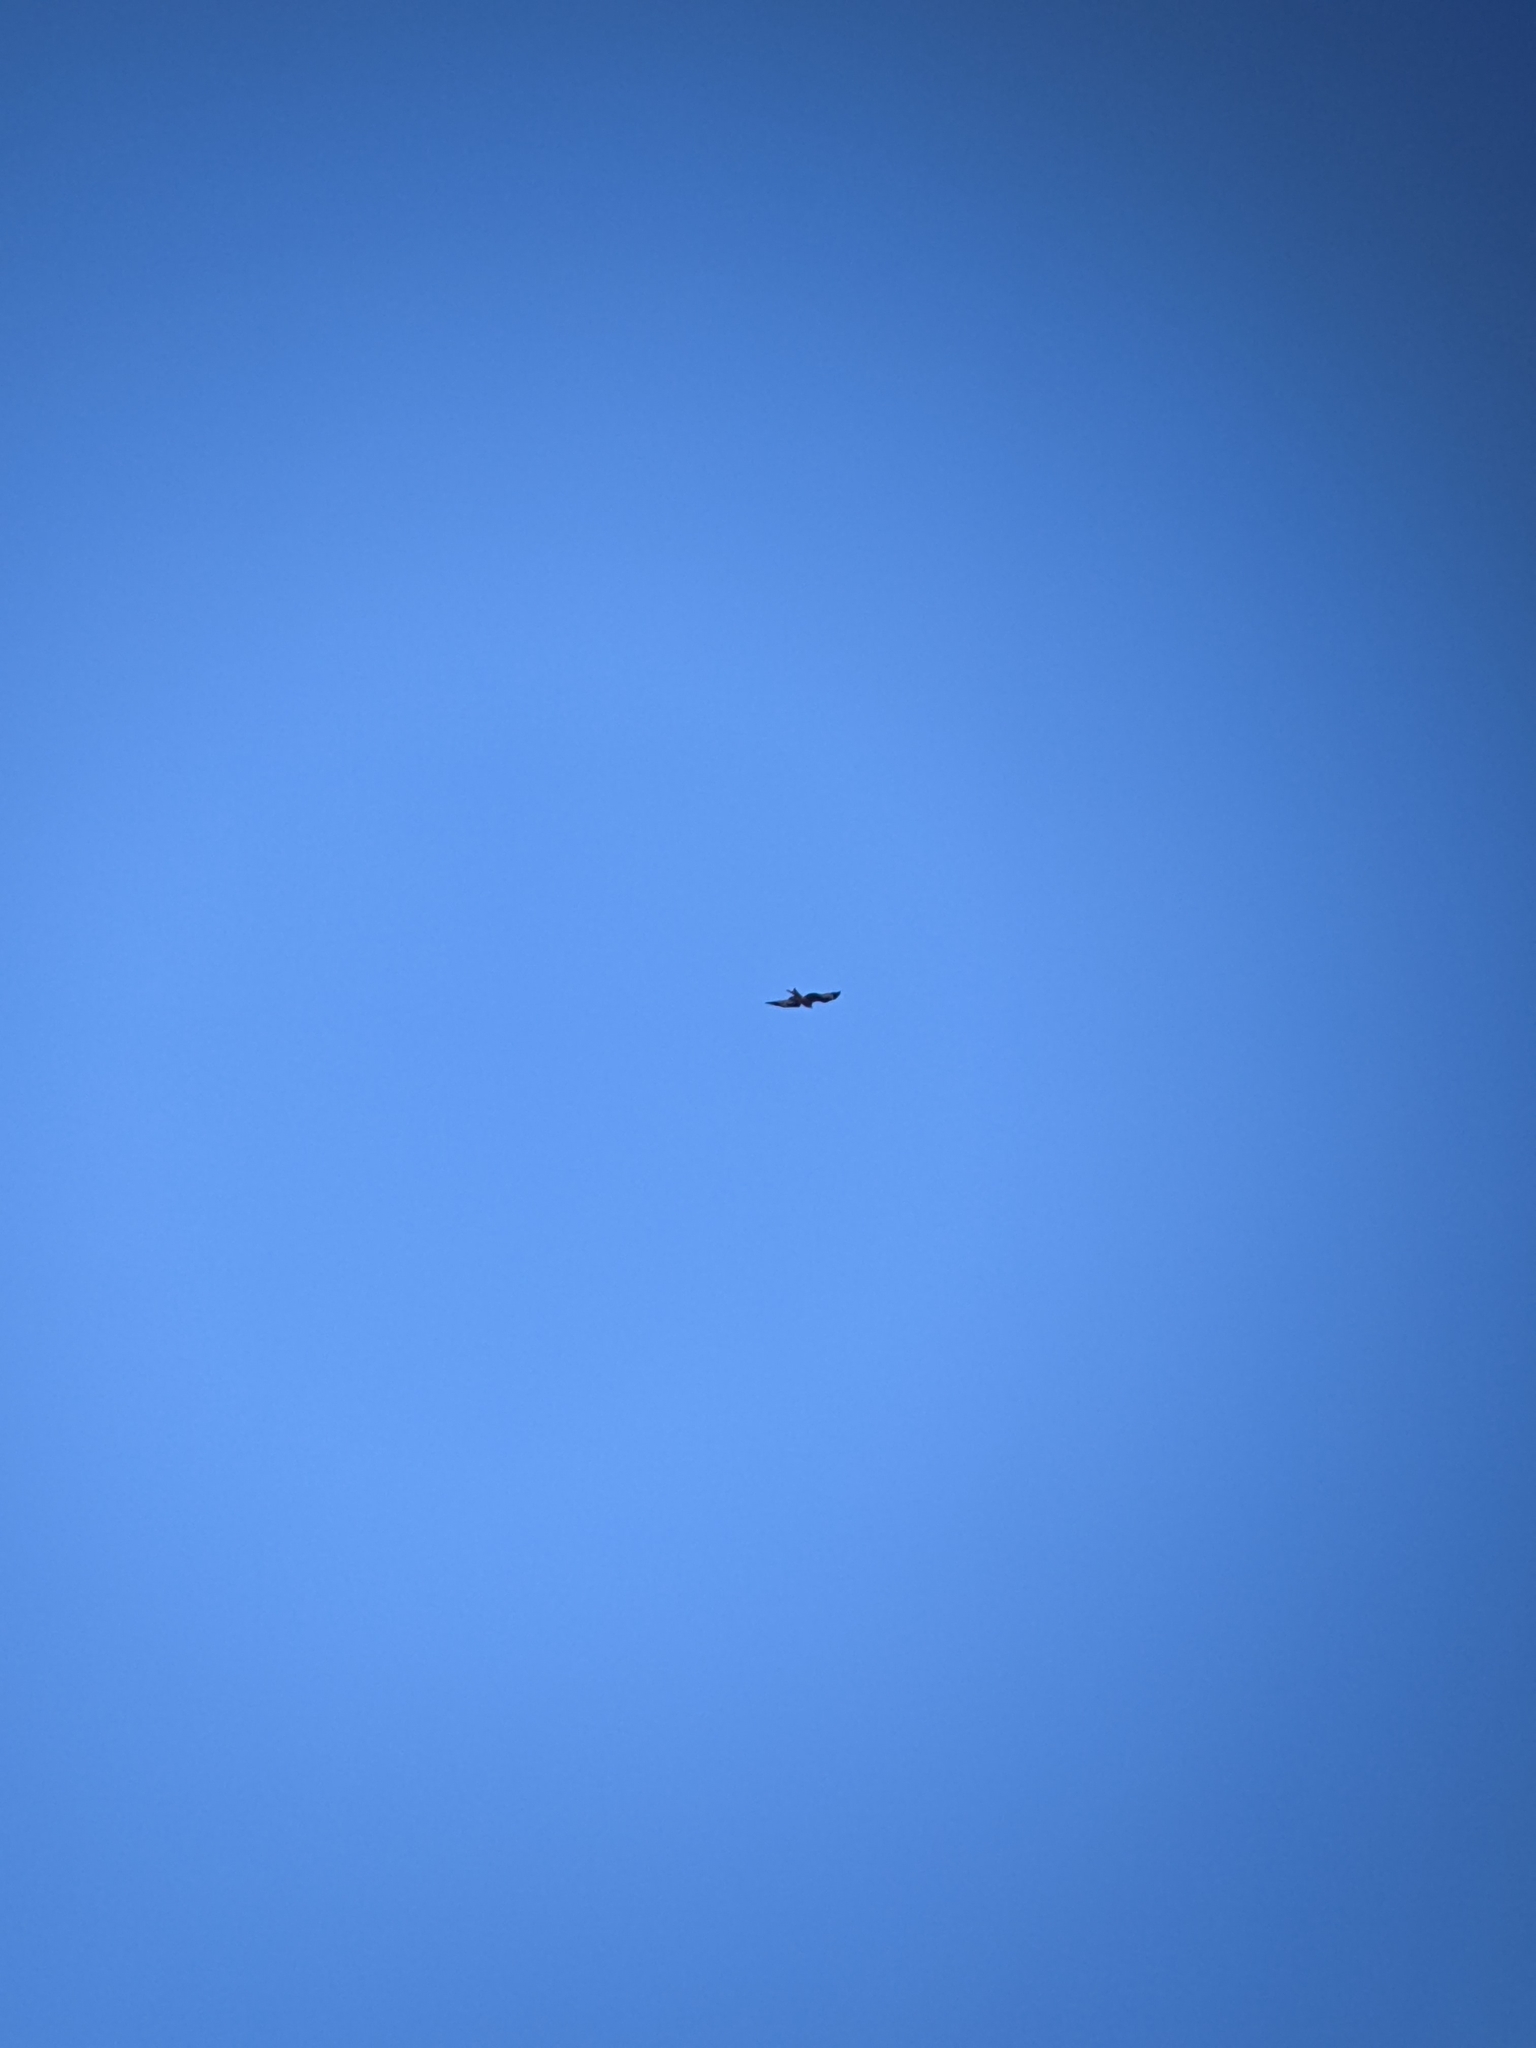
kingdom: Animalia
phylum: Chordata
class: Aves
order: Accipitriformes
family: Accipitridae
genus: Milvus
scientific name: Milvus milvus
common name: Red kite
